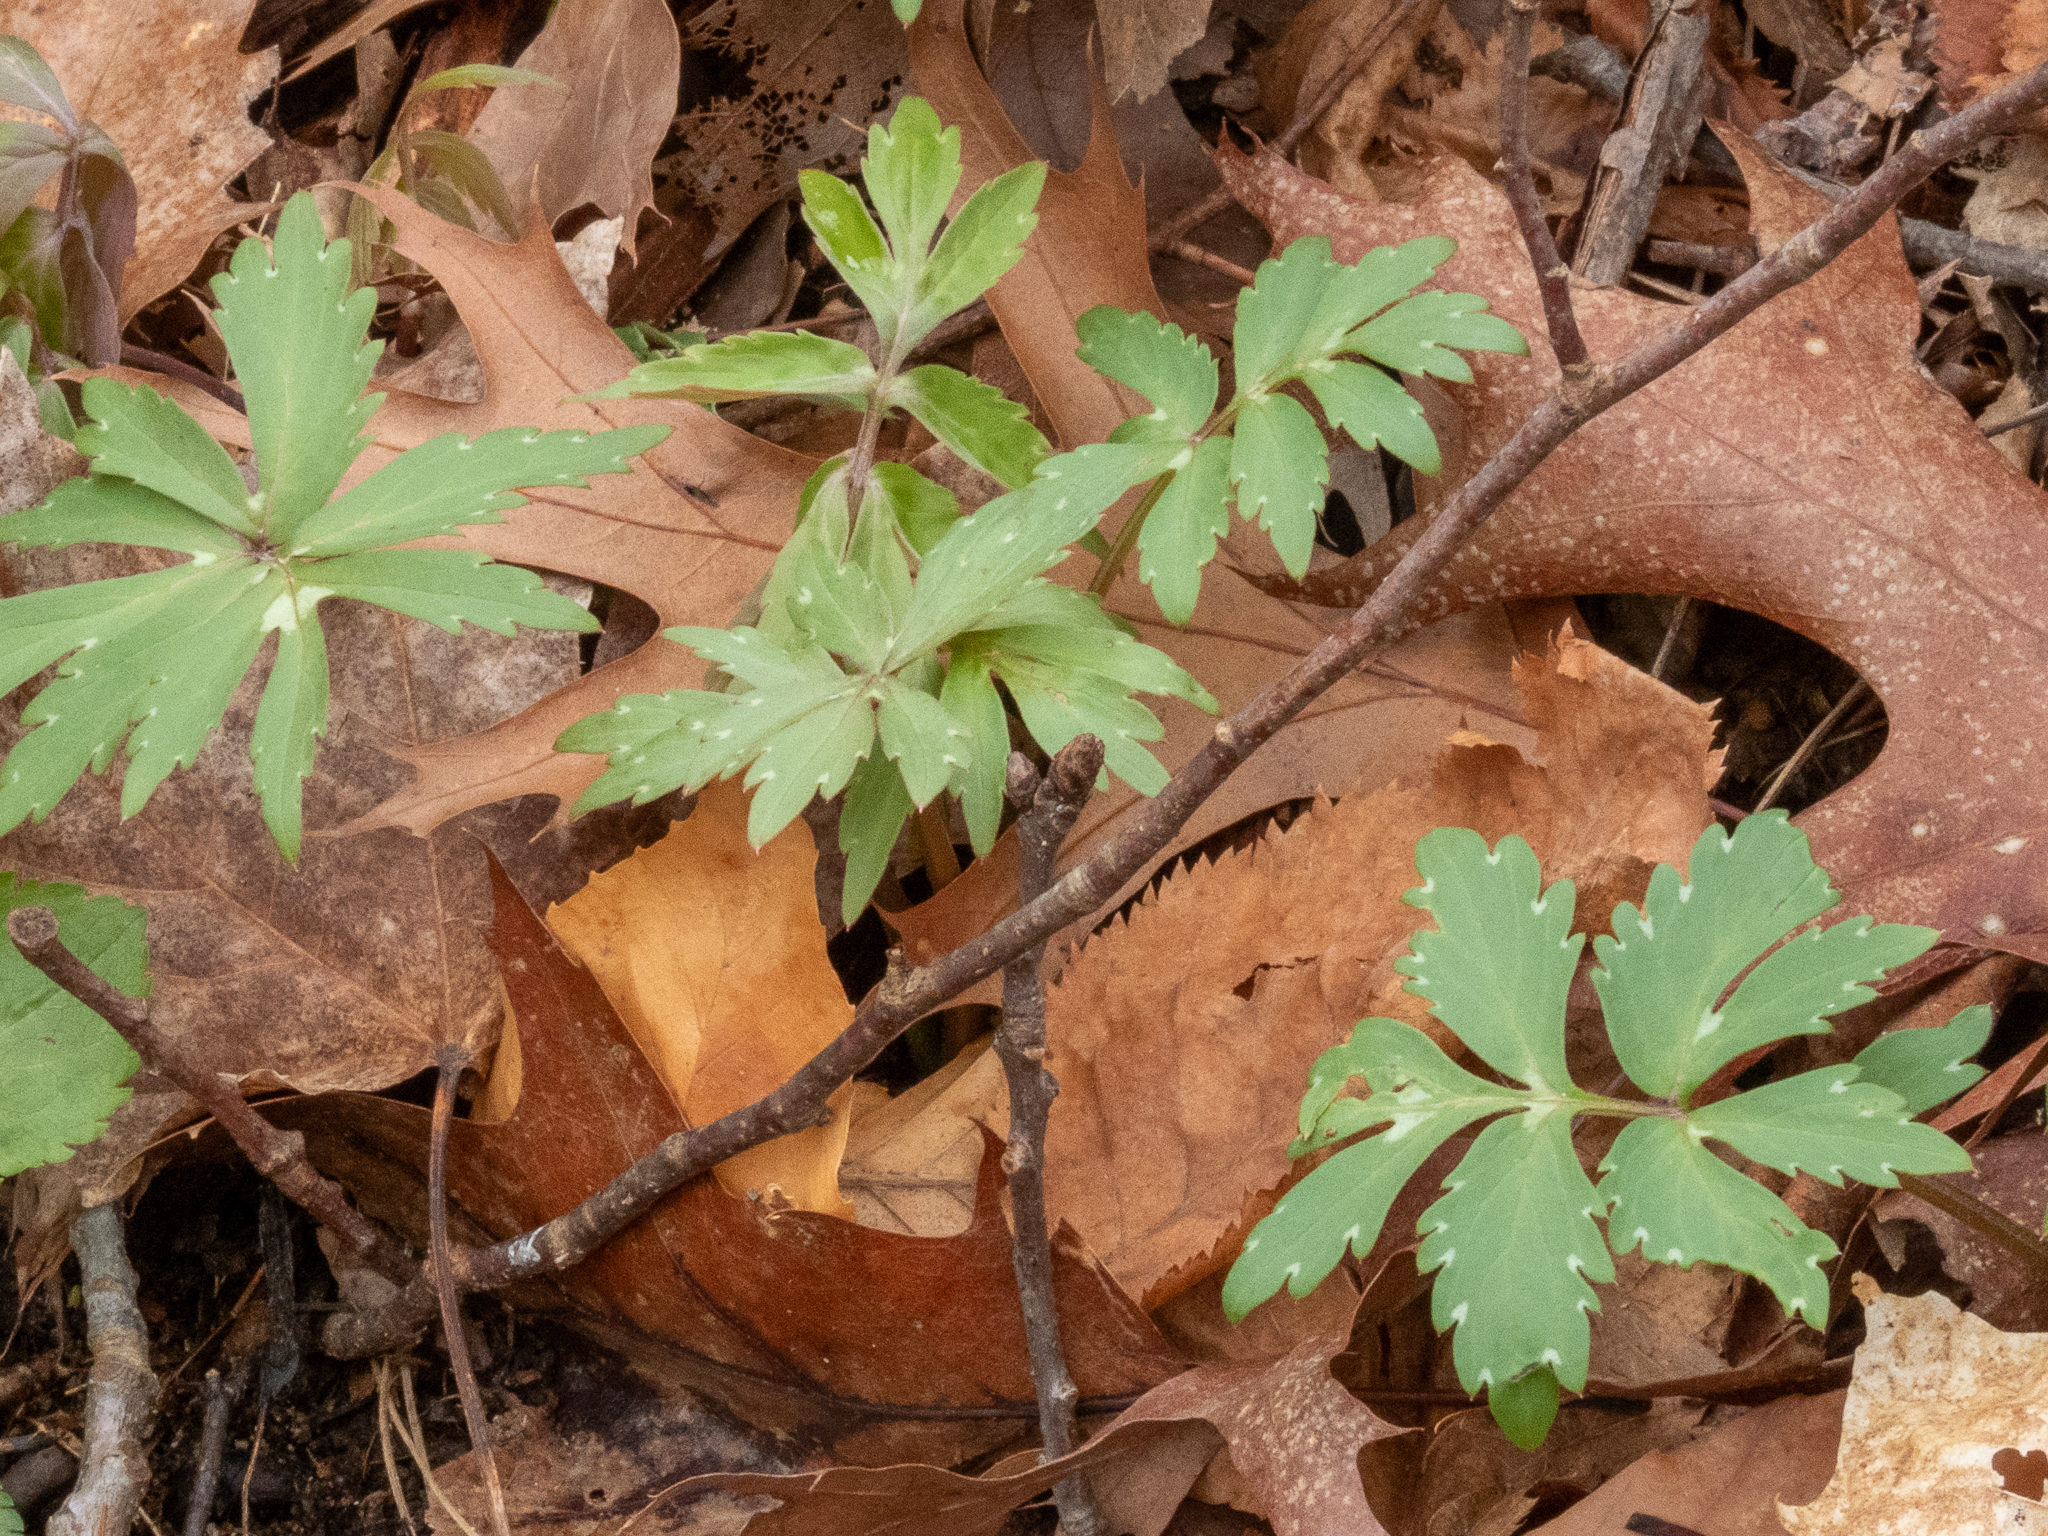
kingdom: Plantae
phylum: Tracheophyta
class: Magnoliopsida
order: Boraginales
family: Hydrophyllaceae
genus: Hydrophyllum
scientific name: Hydrophyllum virginianum
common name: Virginia waterleaf
